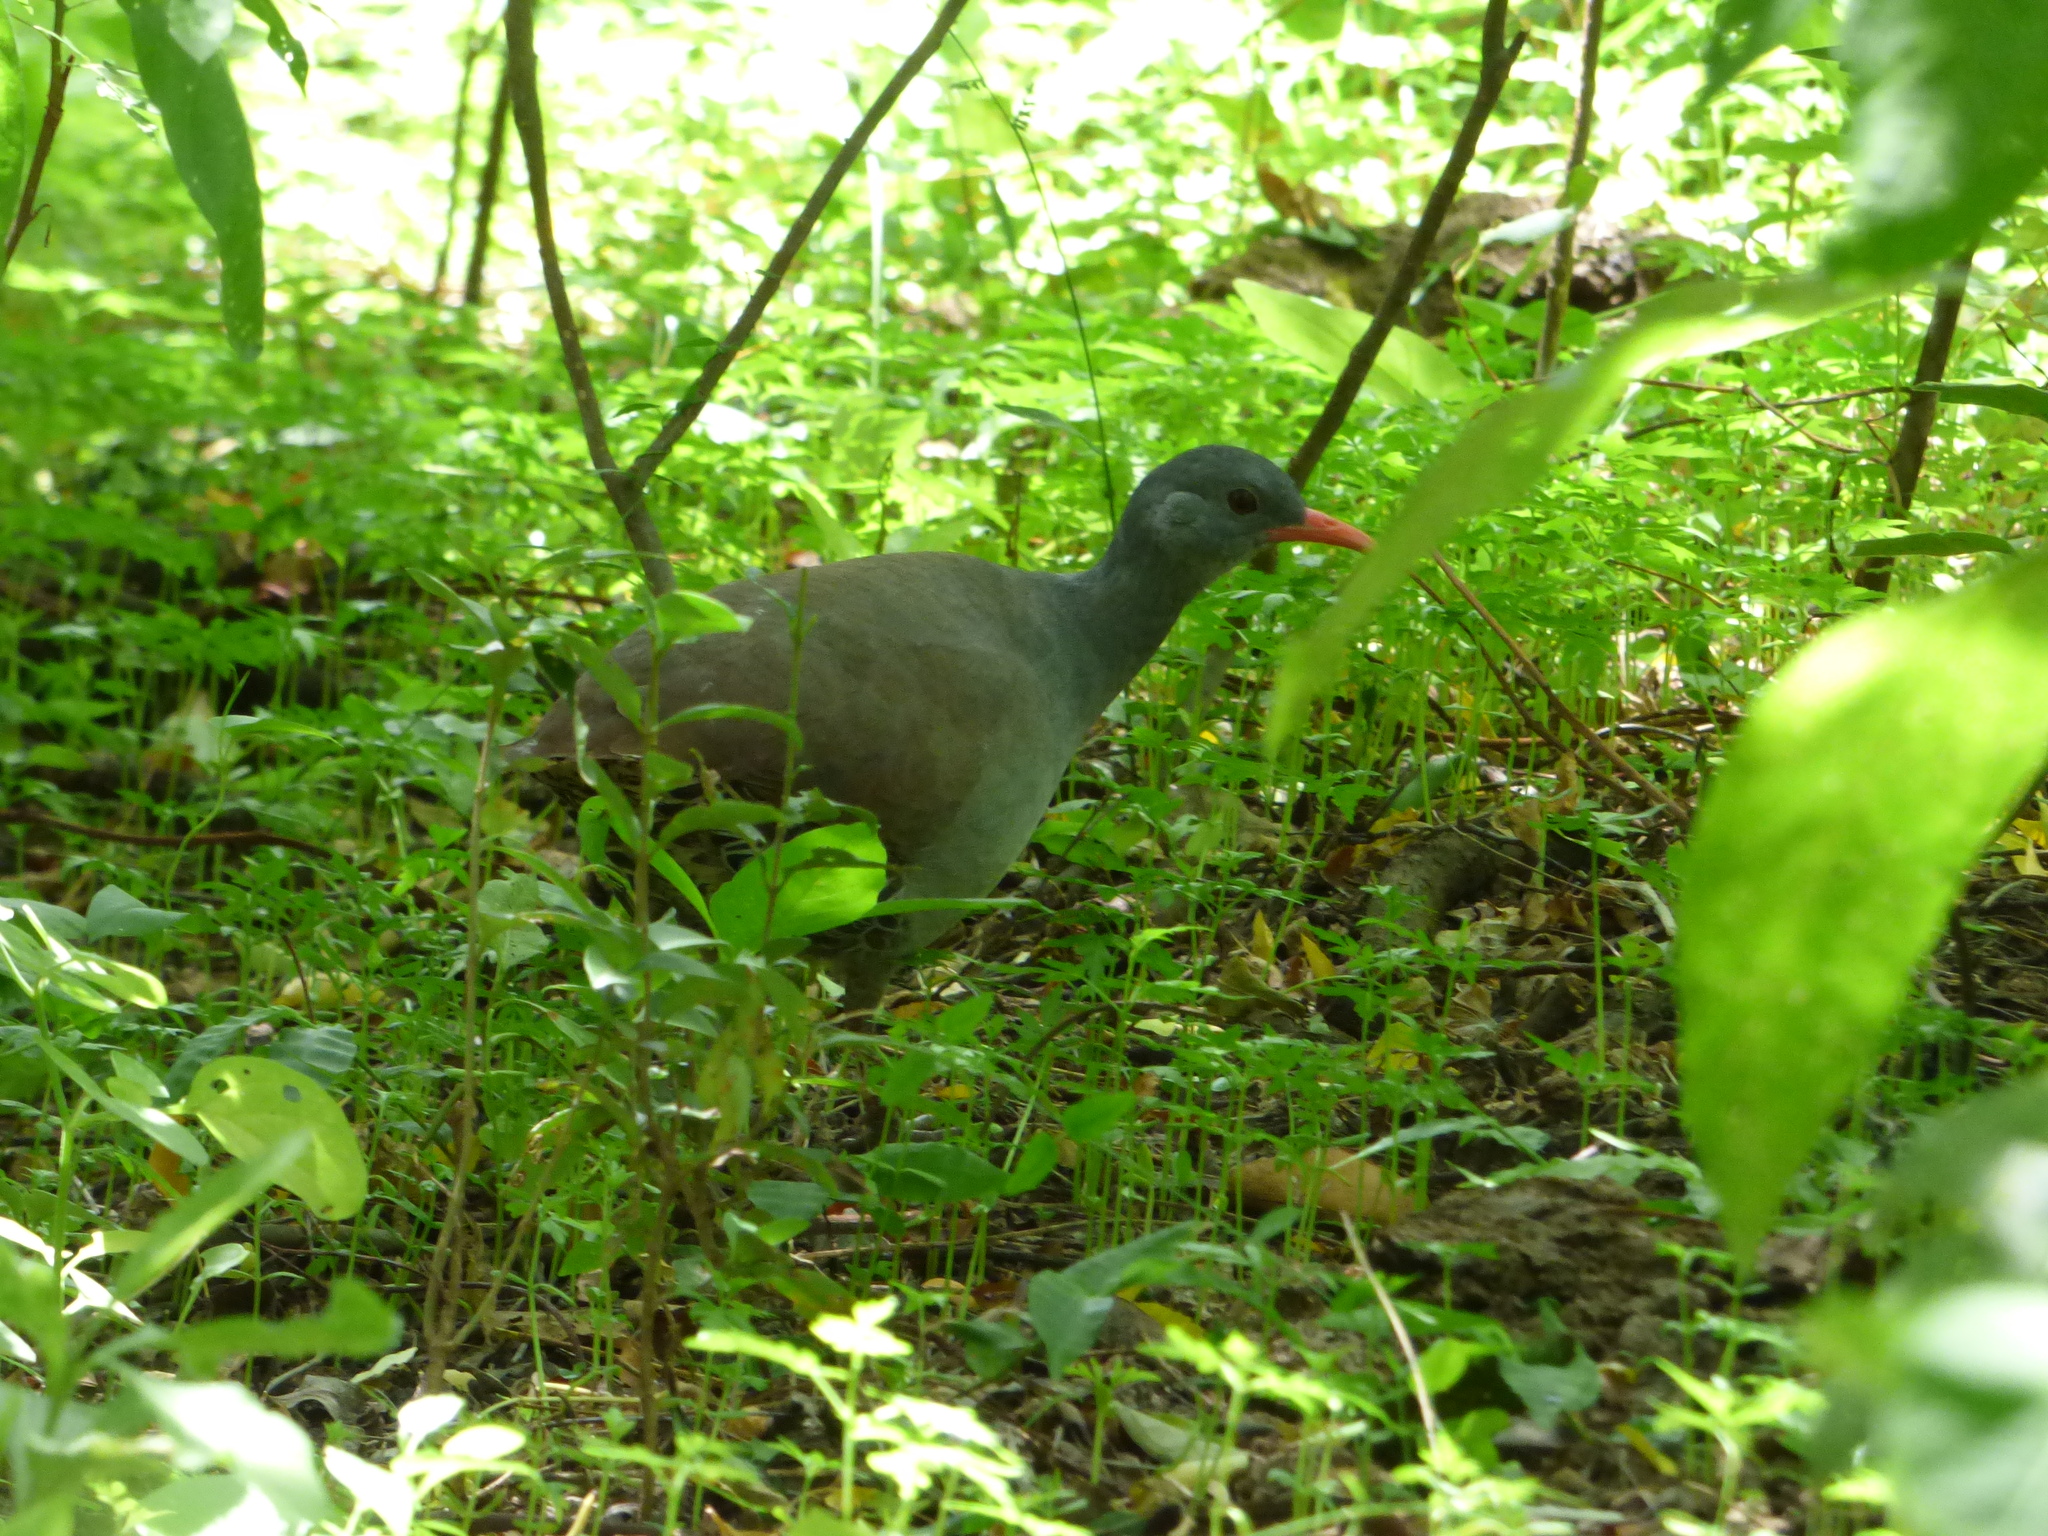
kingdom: Animalia
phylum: Chordata
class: Aves
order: Tinamiformes
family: Tinamidae
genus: Crypturellus
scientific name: Crypturellus tataupa
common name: Tataupa tinamou
